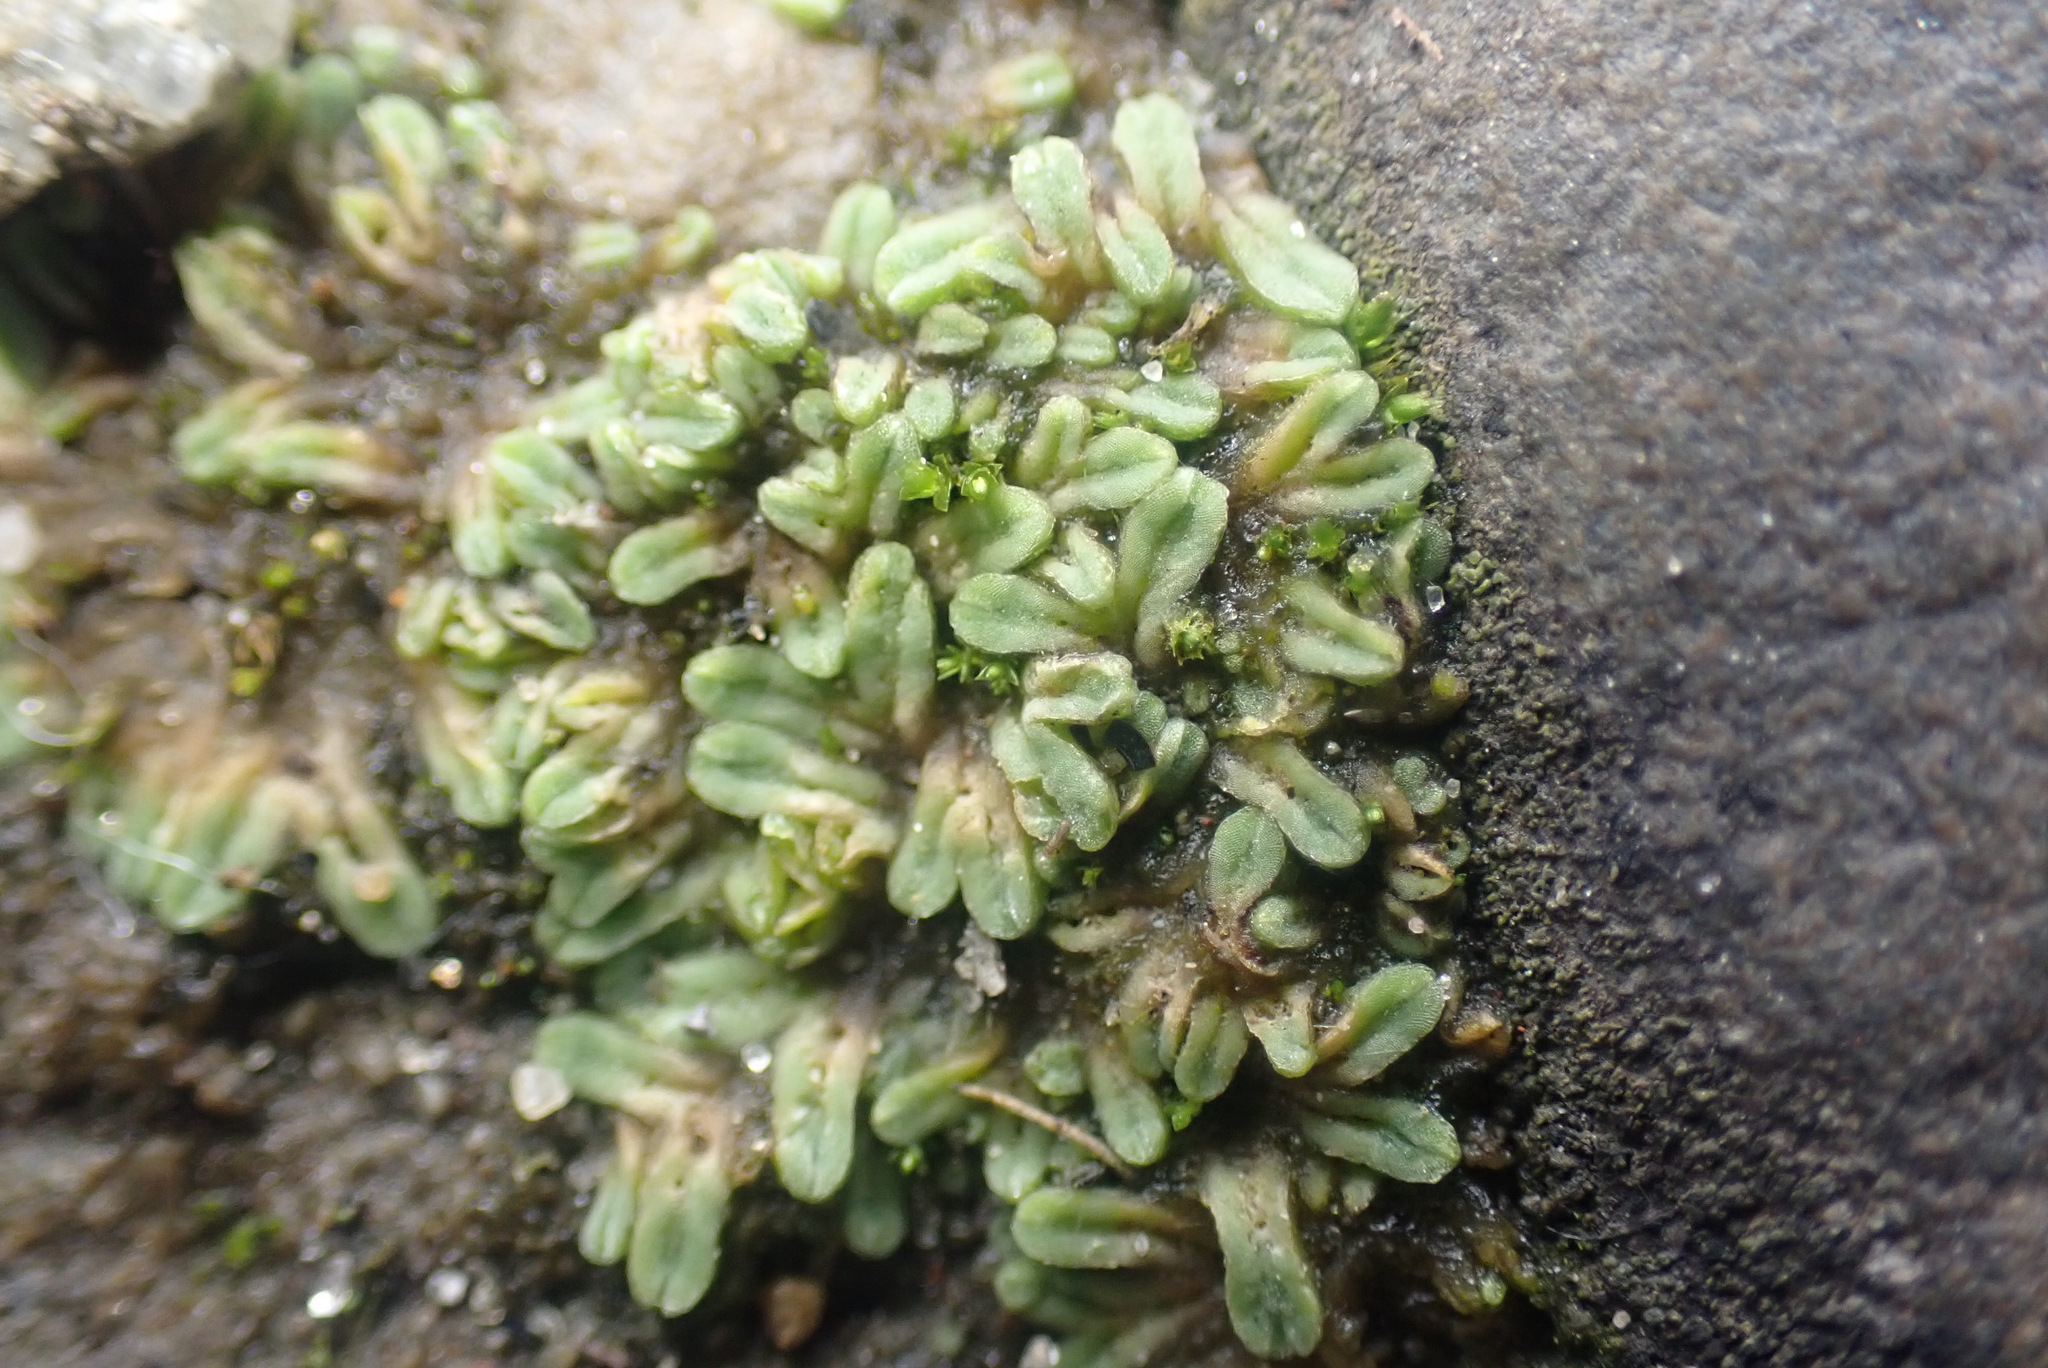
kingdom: Plantae
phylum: Marchantiophyta
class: Marchantiopsida
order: Marchantiales
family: Ricciaceae
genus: Riccia
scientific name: Riccia sorocarpa
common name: Common crystalwort
